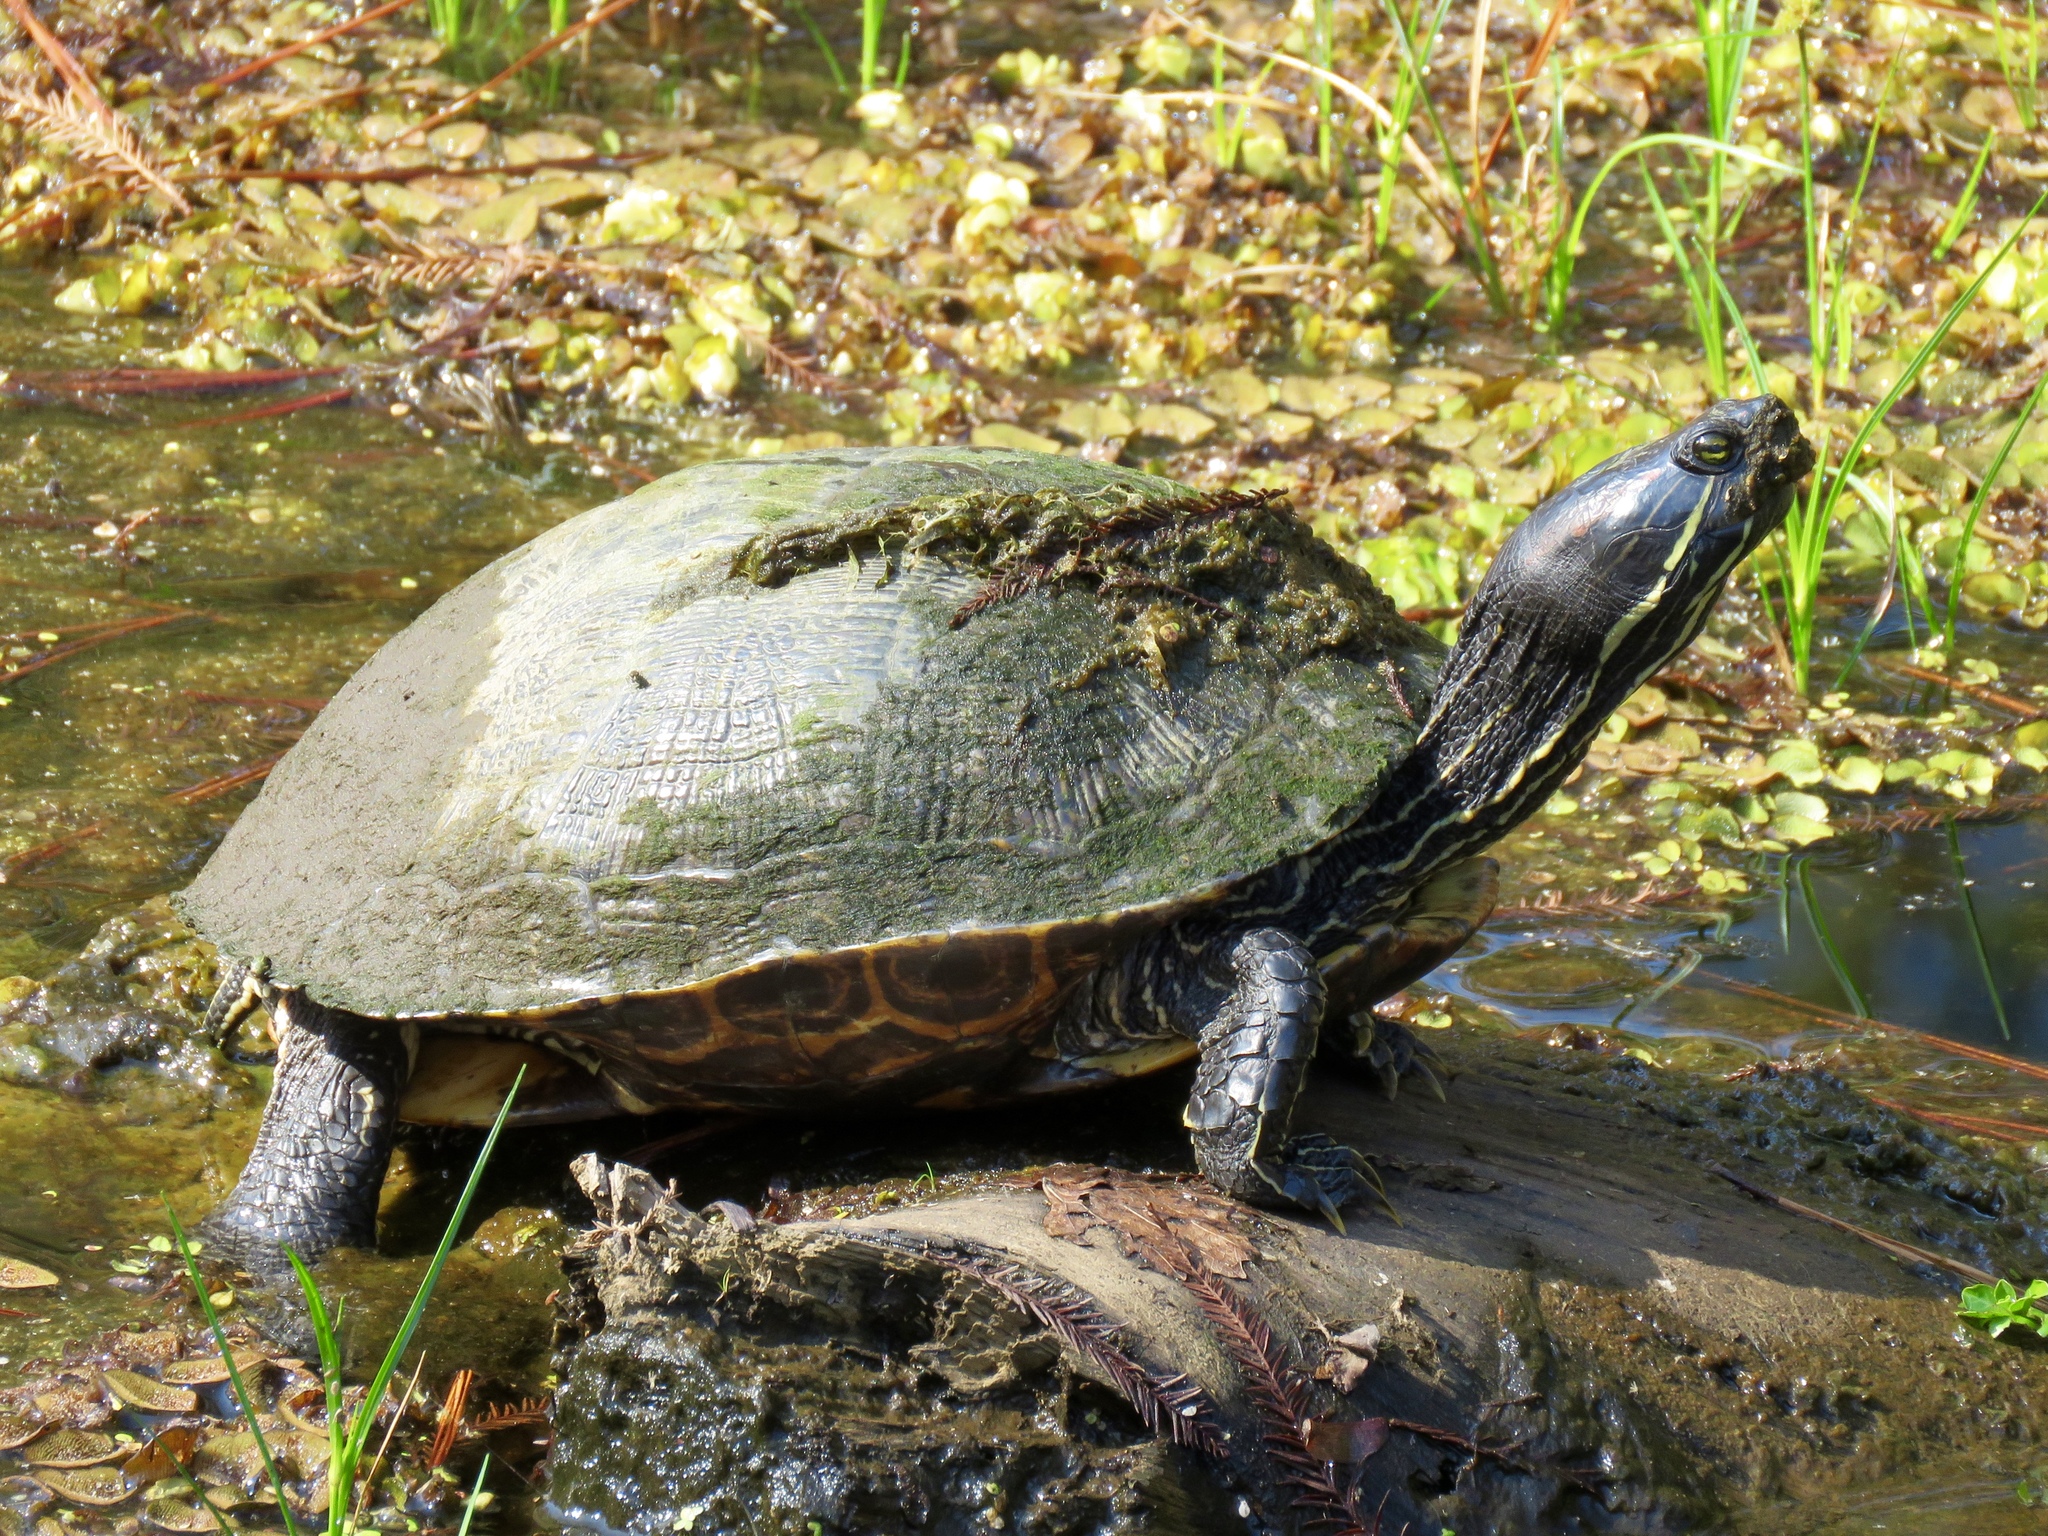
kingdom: Animalia
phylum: Chordata
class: Testudines
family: Emydidae
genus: Trachemys
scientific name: Trachemys scripta
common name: Slider
